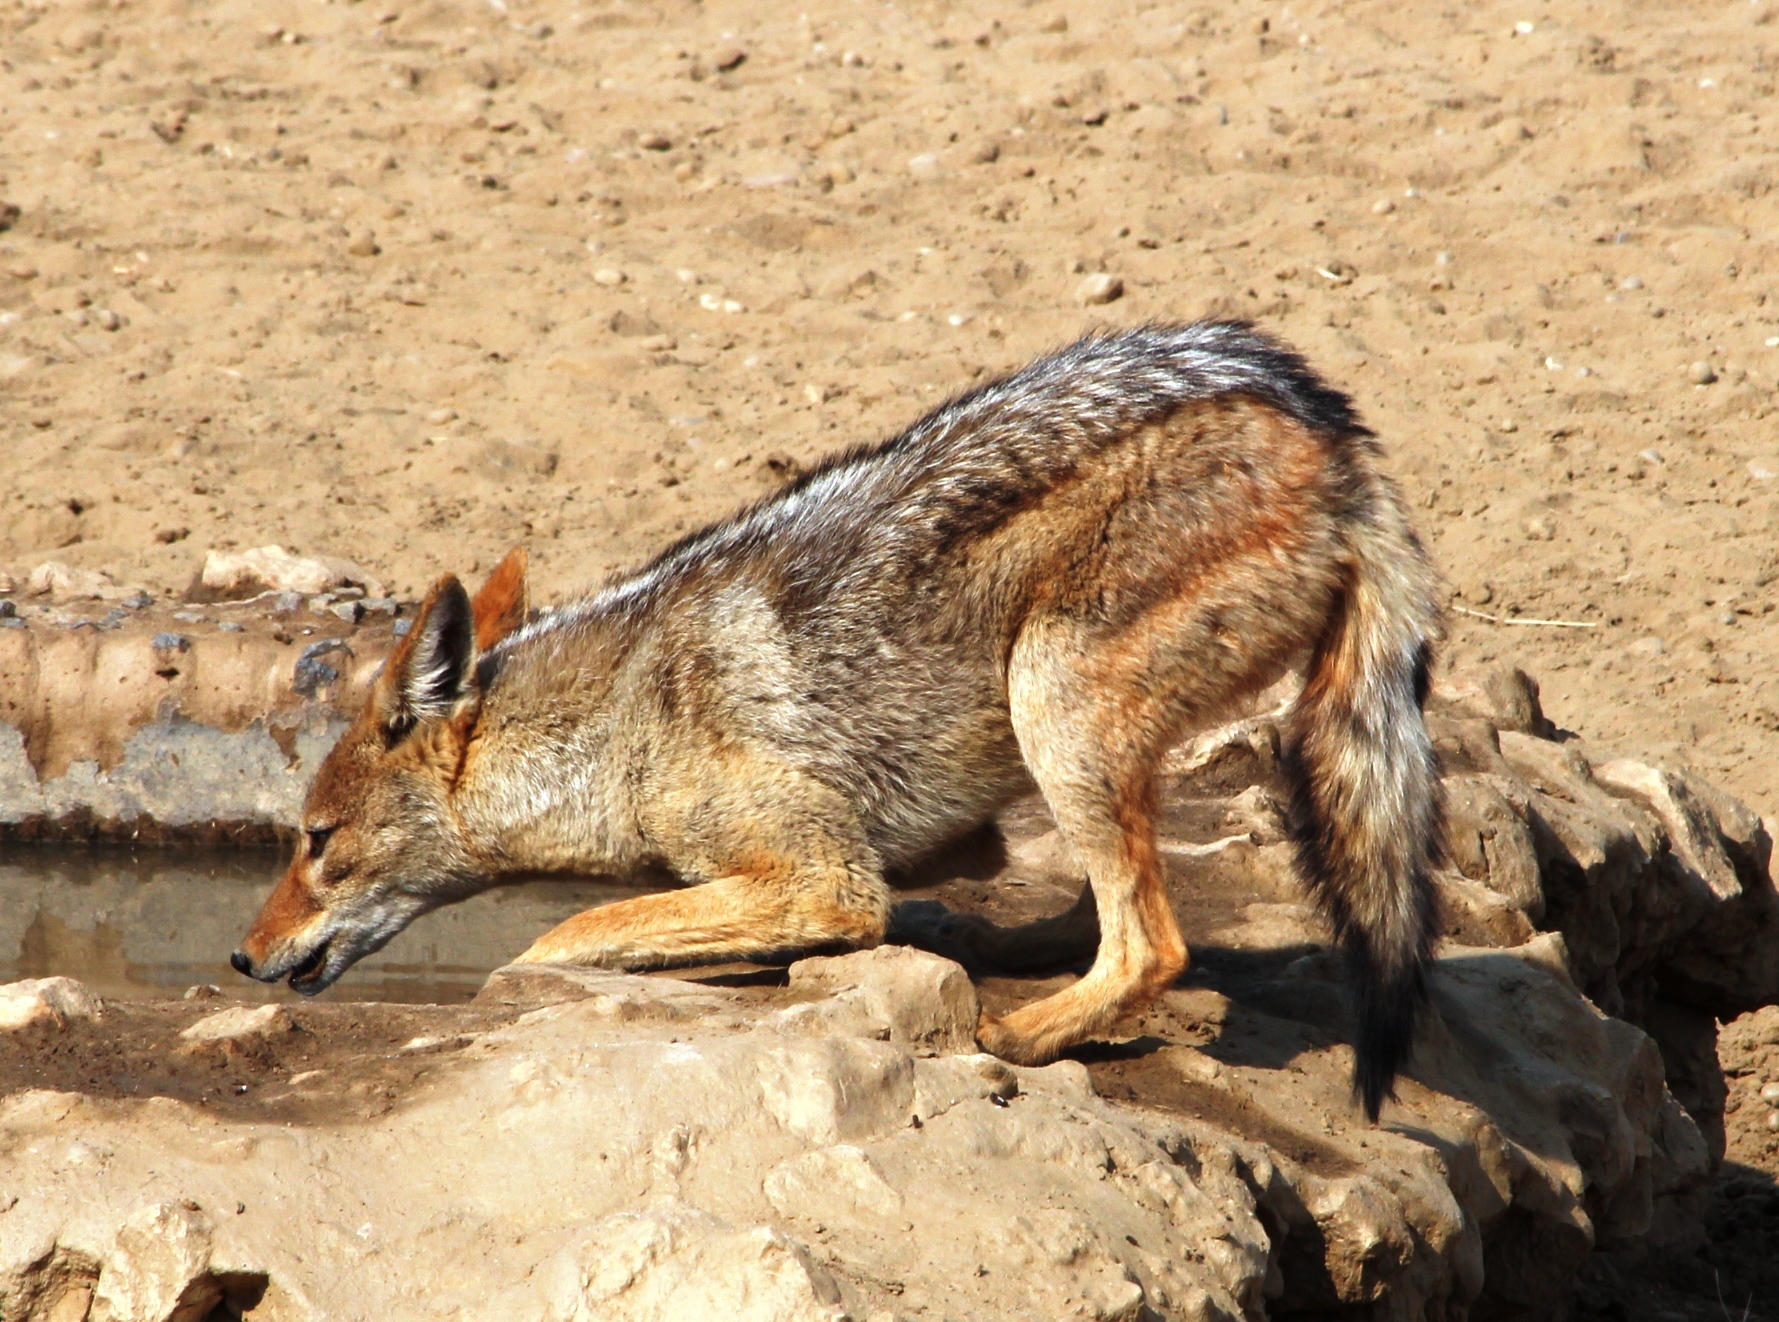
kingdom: Animalia
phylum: Chordata
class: Mammalia
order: Carnivora
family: Canidae
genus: Lupulella
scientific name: Lupulella
